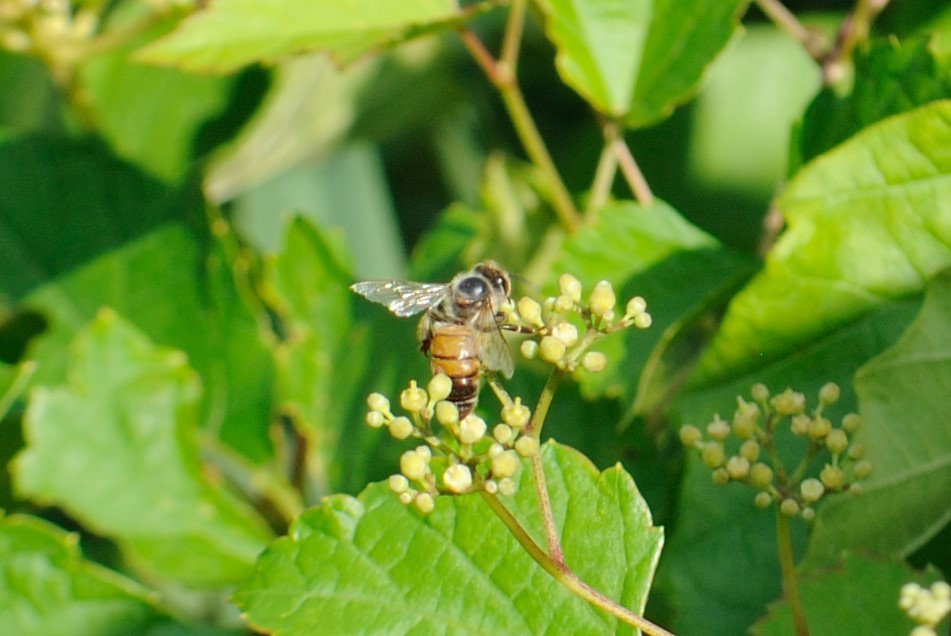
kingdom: Animalia
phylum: Arthropoda
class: Insecta
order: Hymenoptera
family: Apidae
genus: Apis
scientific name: Apis mellifera
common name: Honey bee
